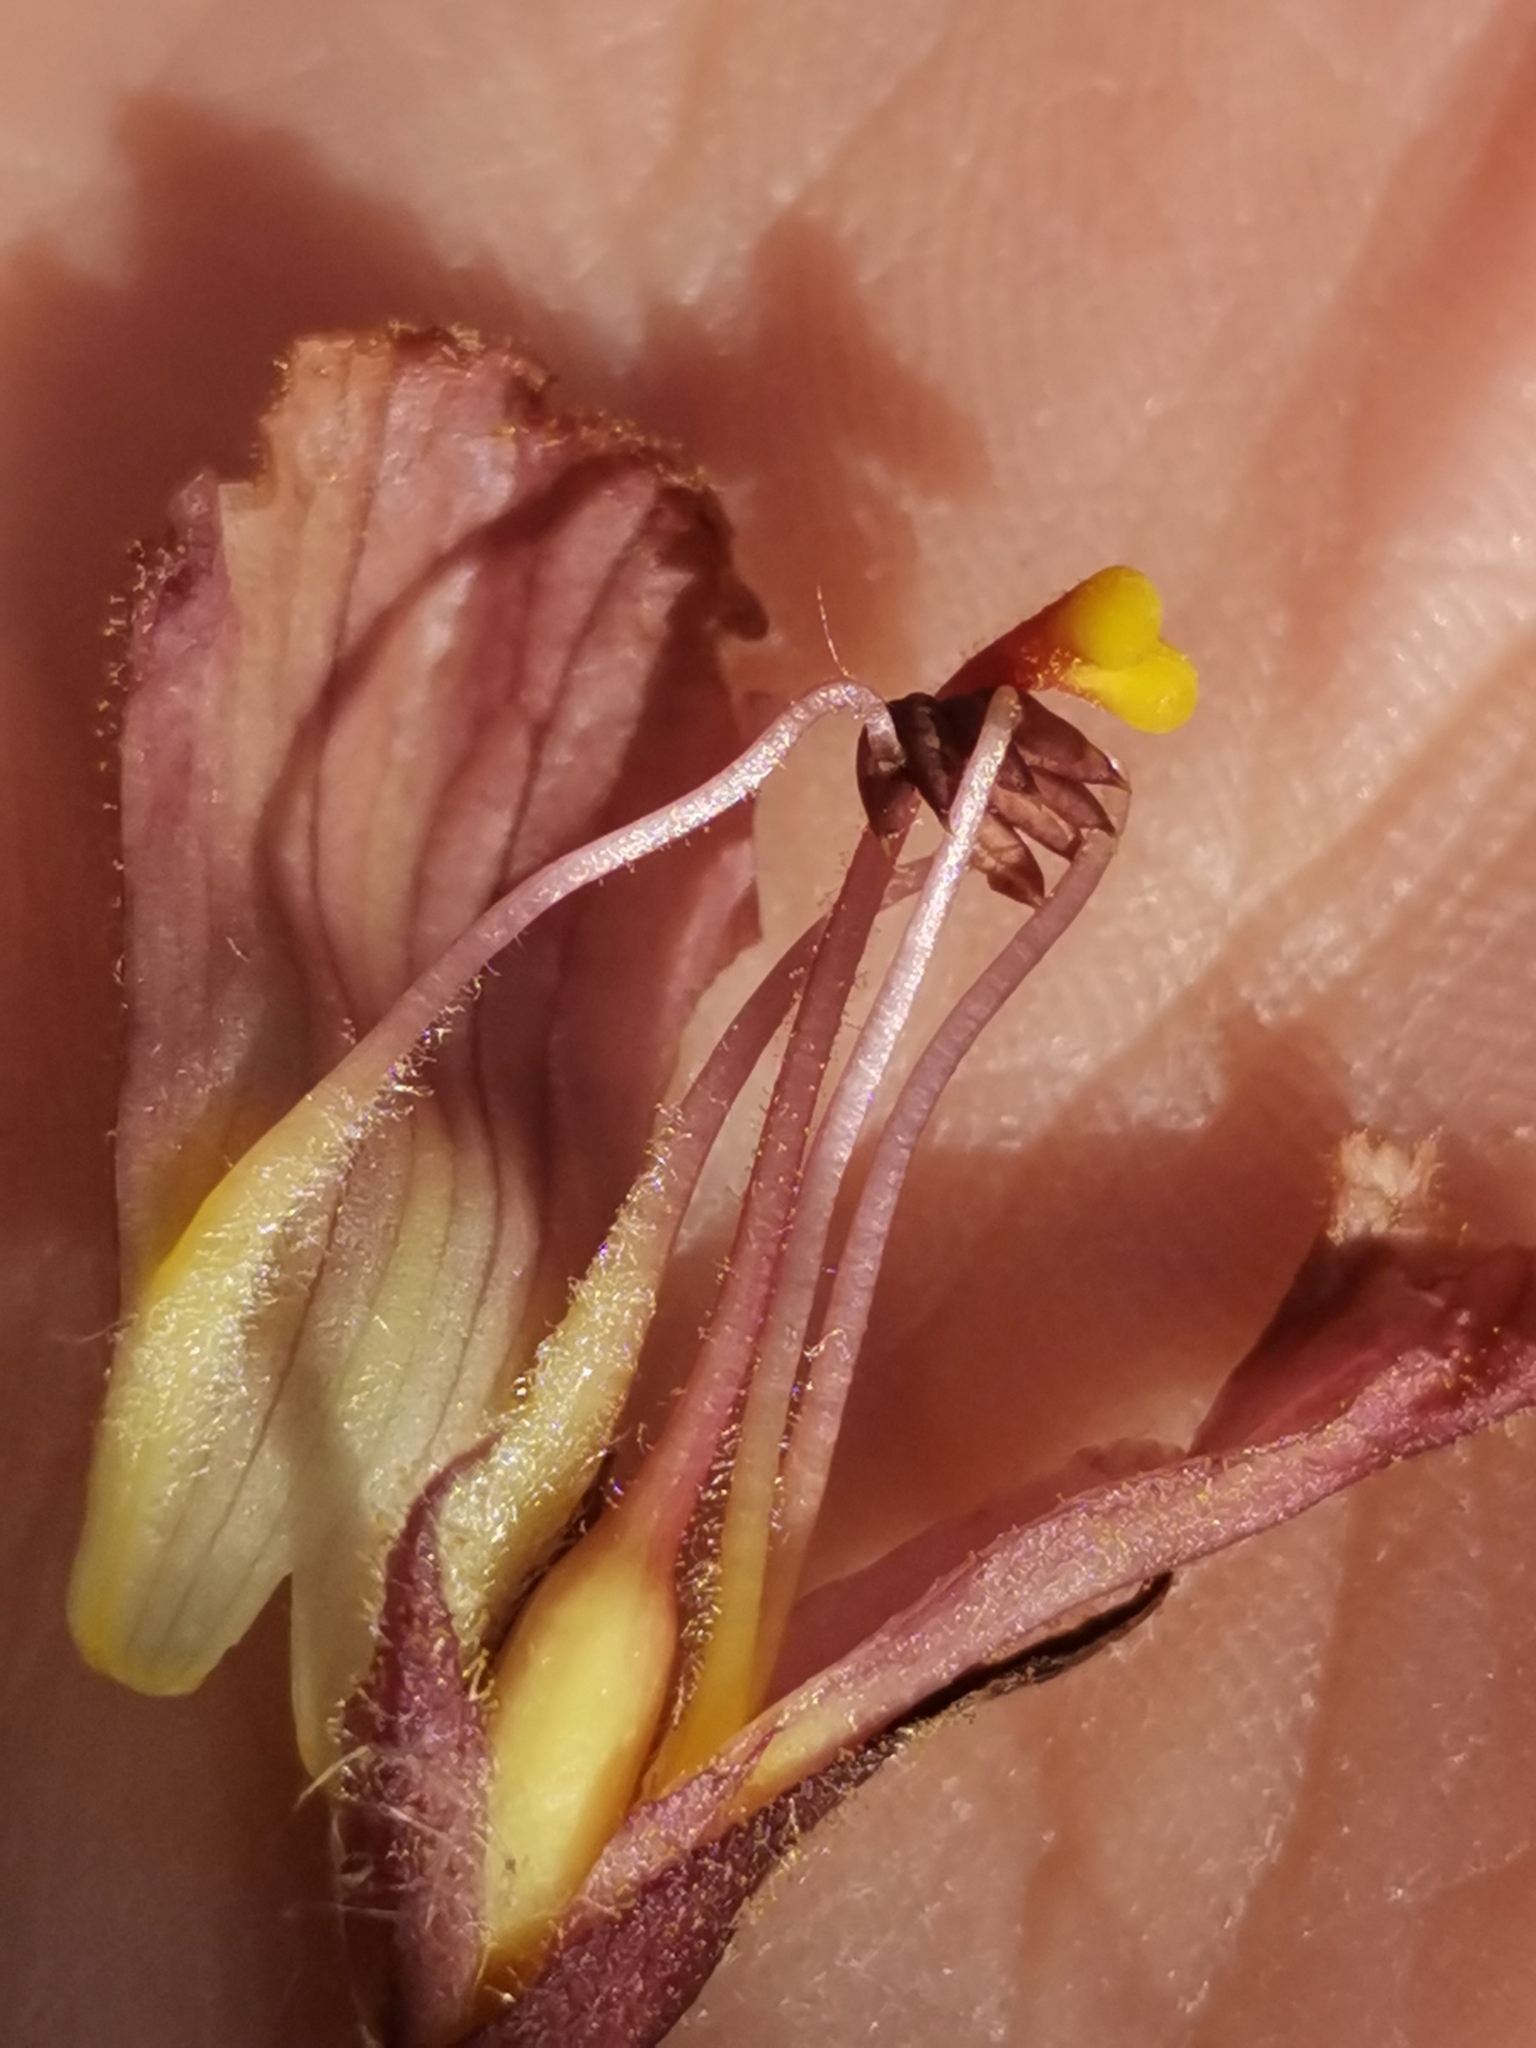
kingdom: Plantae
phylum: Tracheophyta
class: Magnoliopsida
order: Lamiales
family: Orobanchaceae
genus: Orobanche
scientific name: Orobanche lutea
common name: Yellow broomrape
